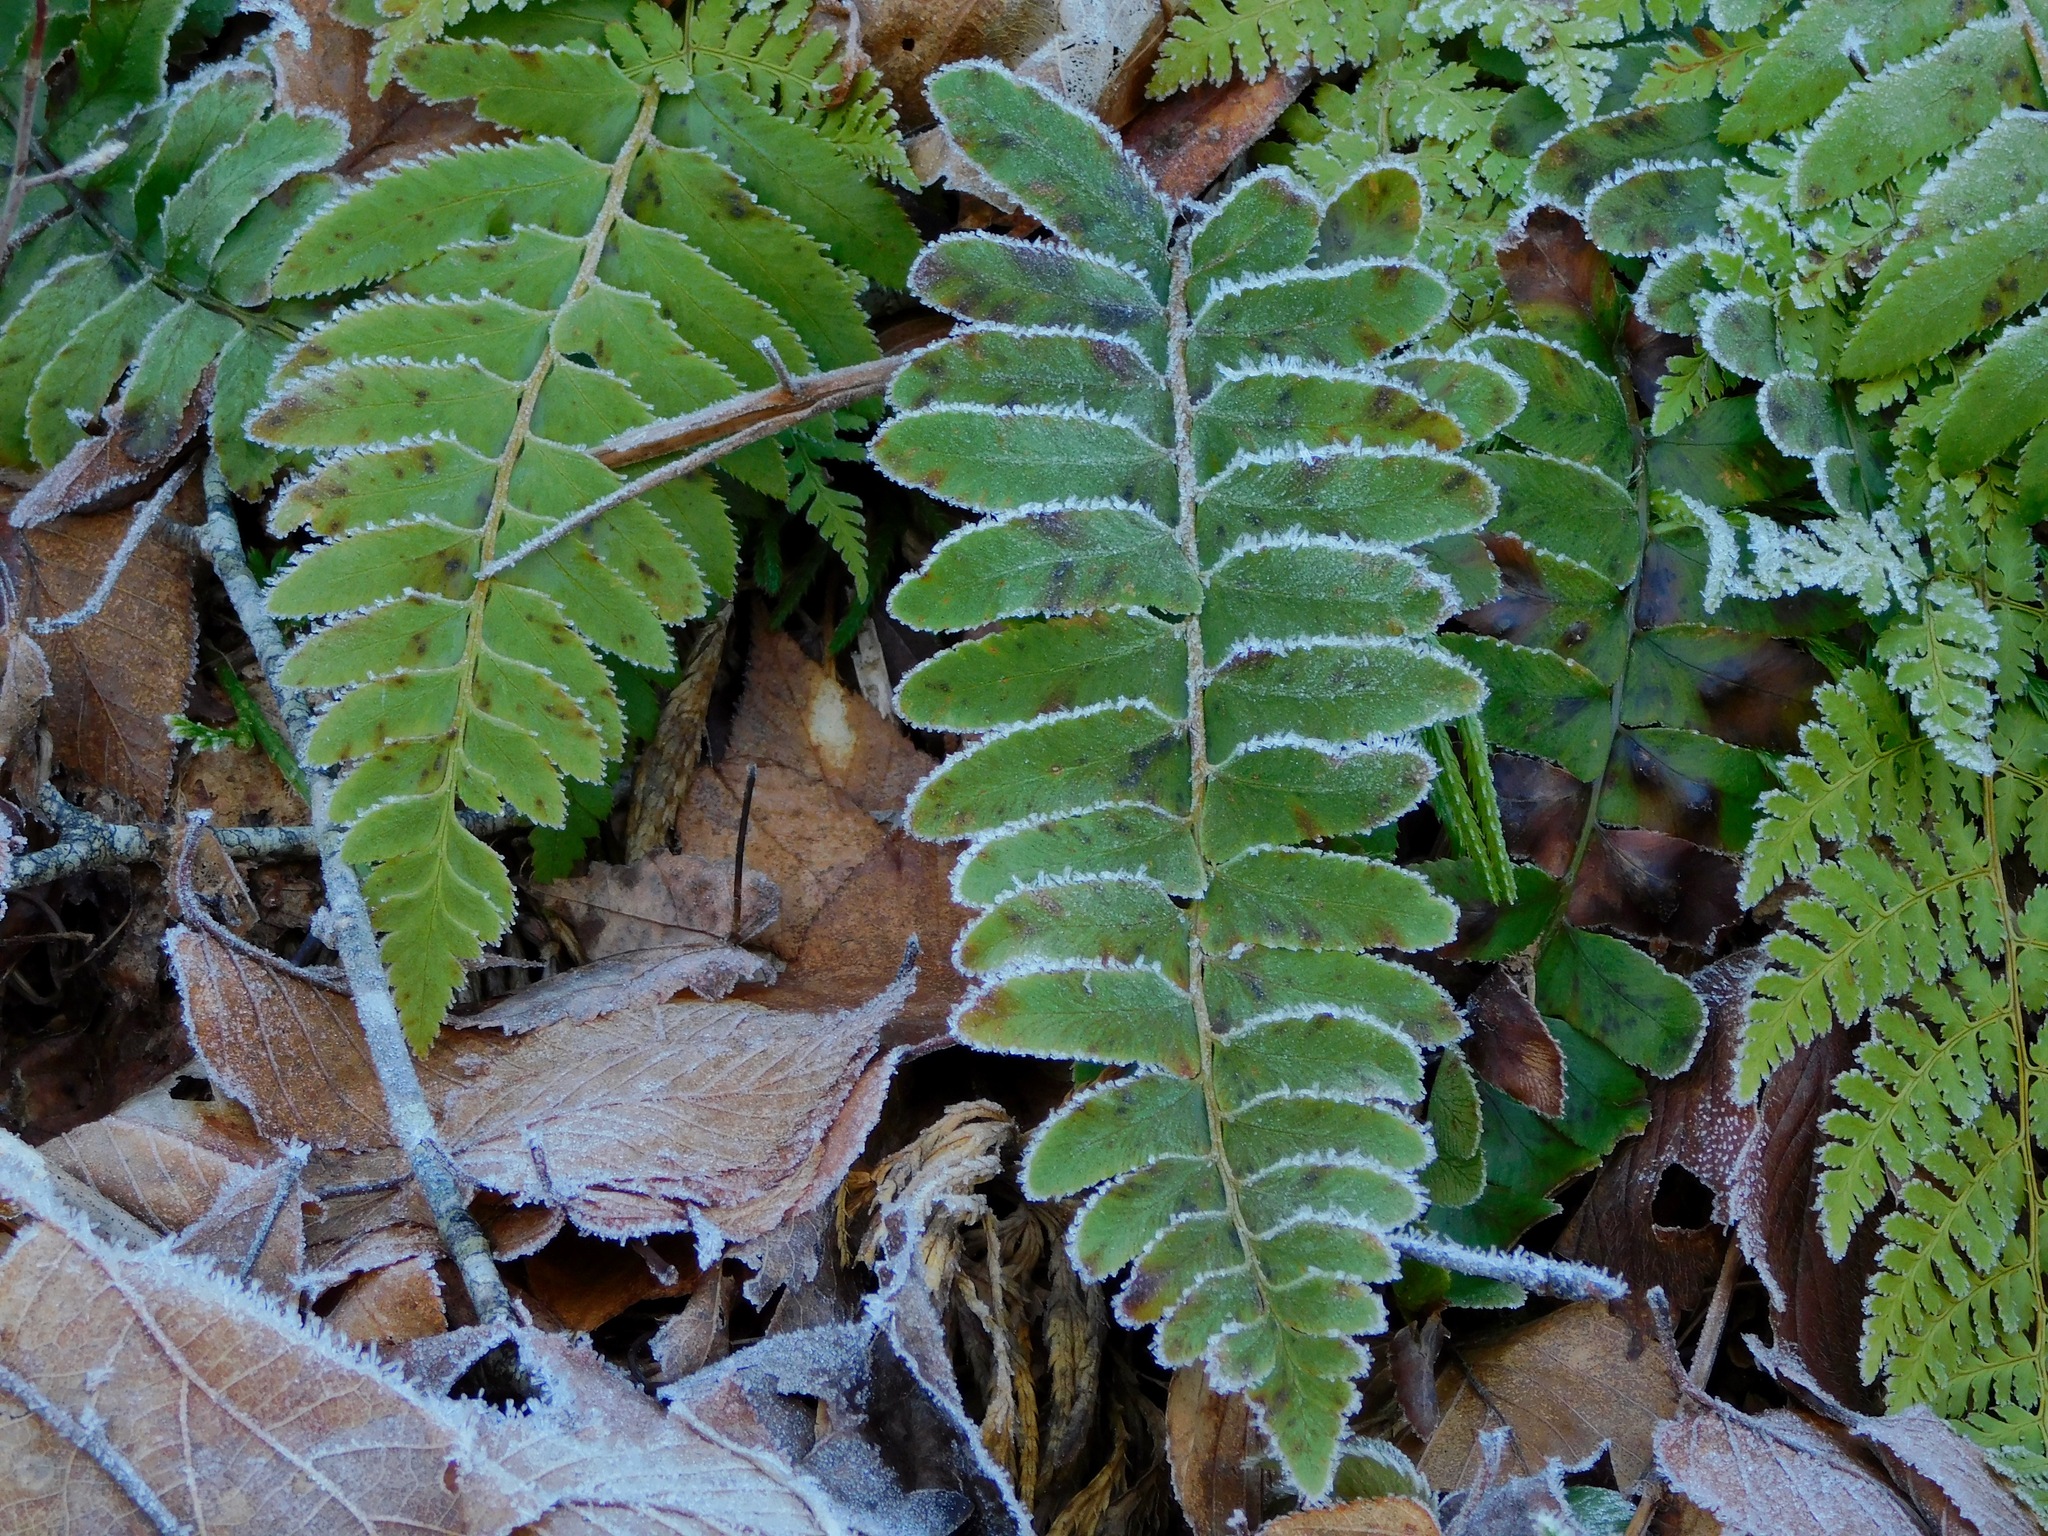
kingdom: Plantae
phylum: Tracheophyta
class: Polypodiopsida
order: Polypodiales
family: Dryopteridaceae
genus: Polystichum
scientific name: Polystichum acrostichoides
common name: Christmas fern
